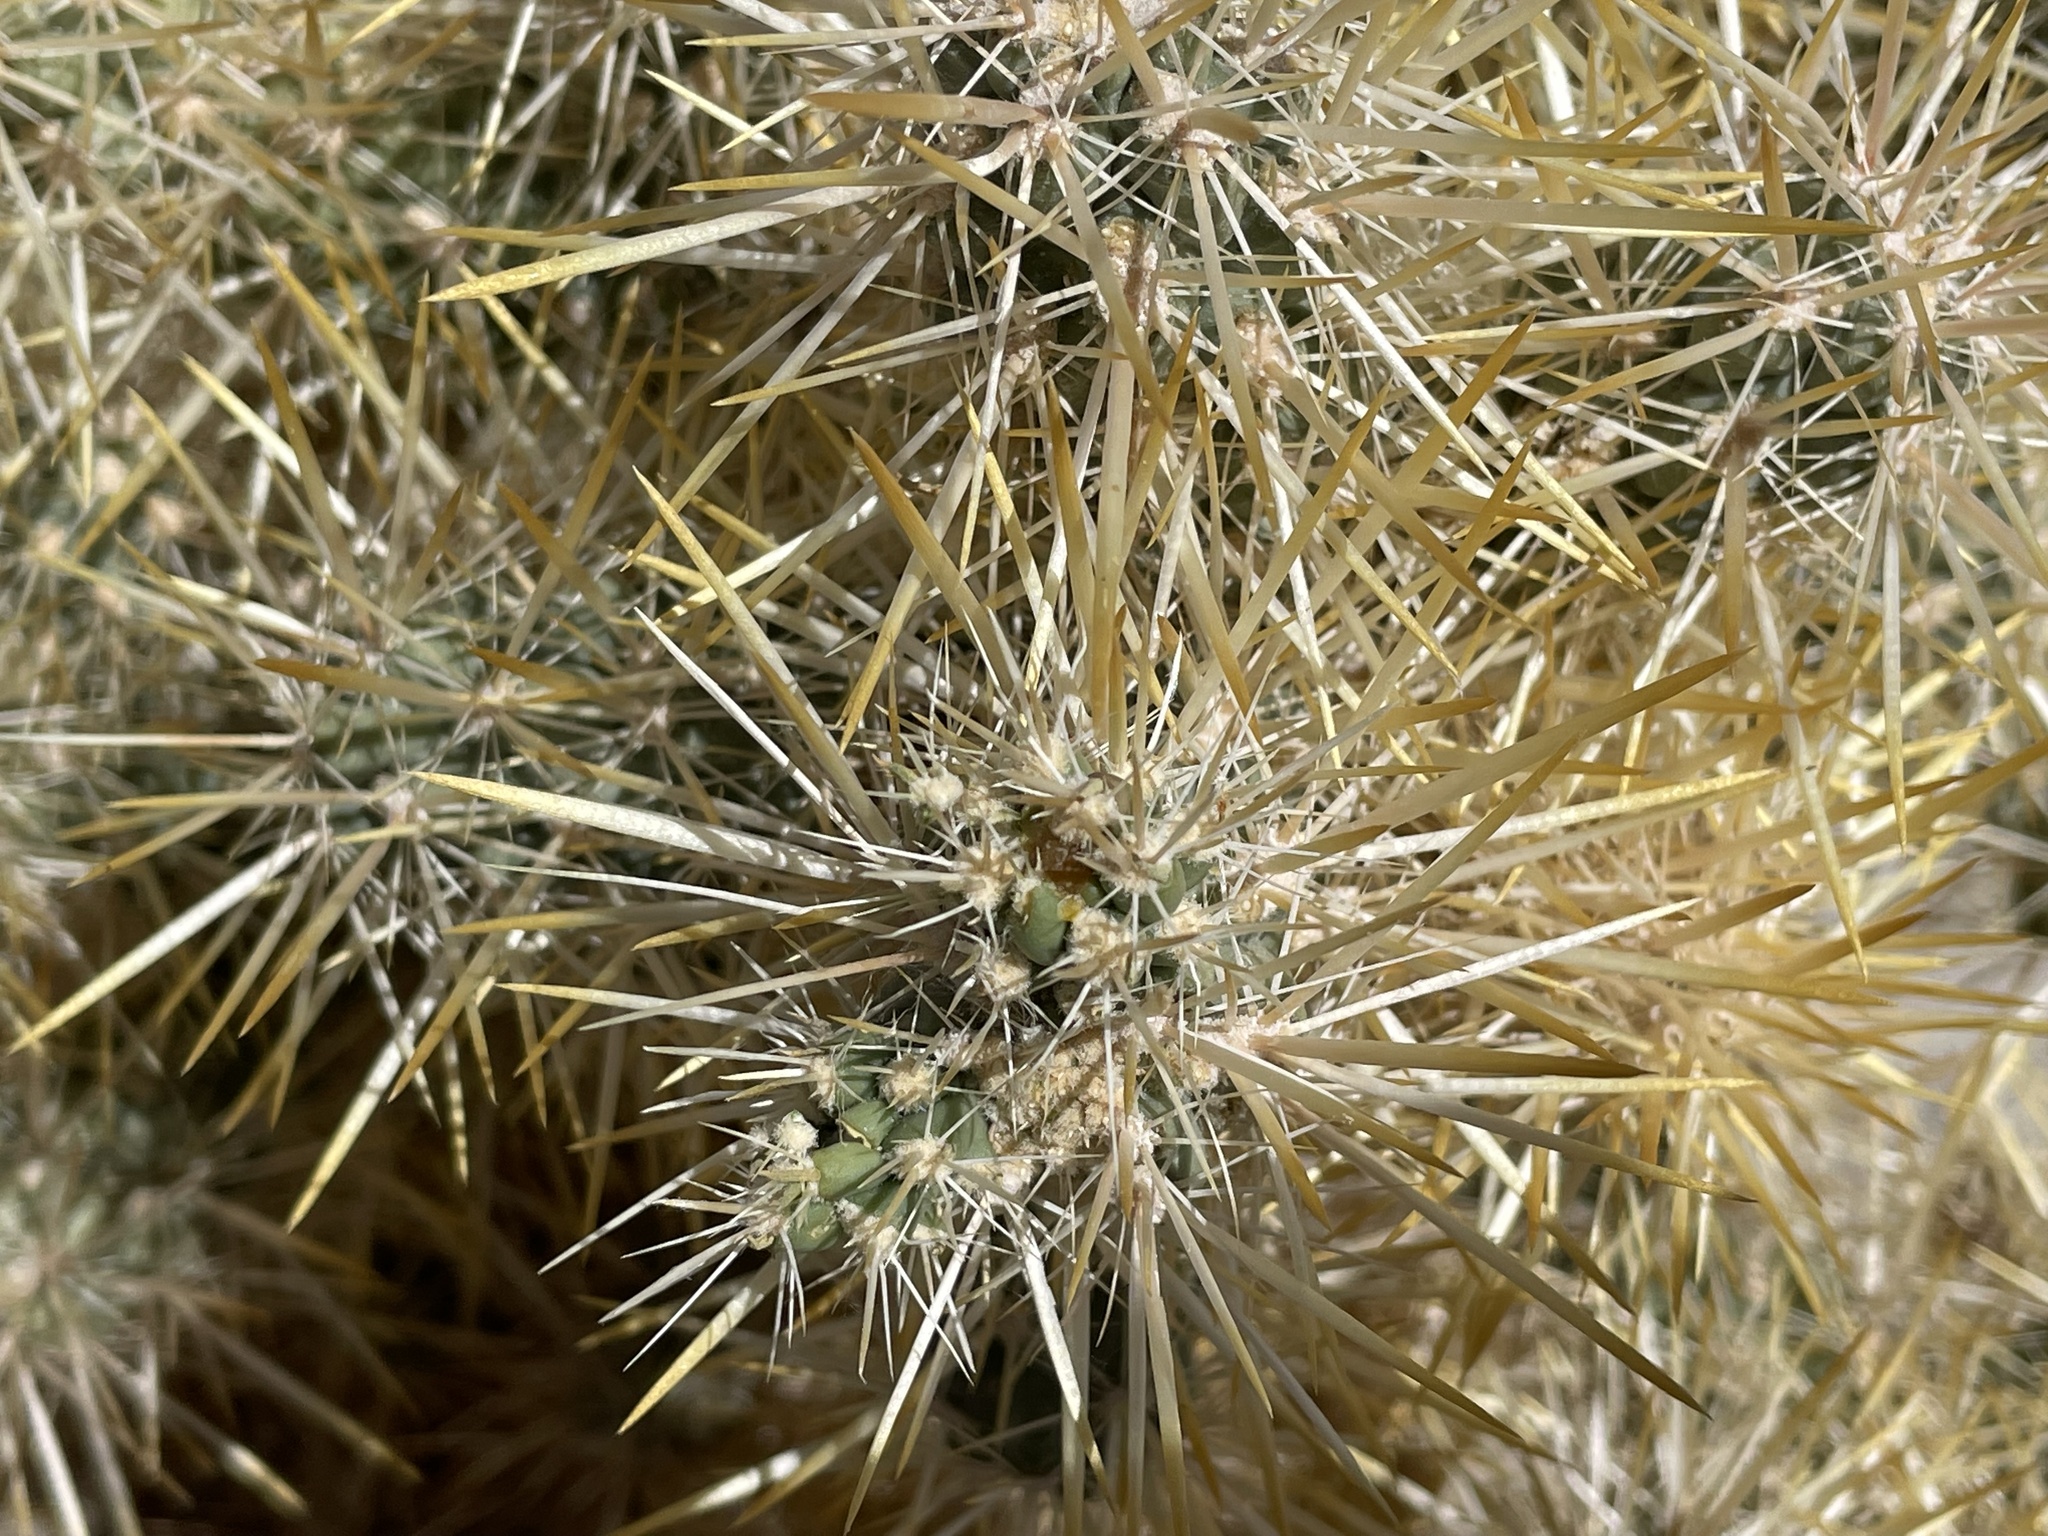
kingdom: Plantae
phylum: Tracheophyta
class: Magnoliopsida
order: Caryophyllales
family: Cactaceae
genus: Cylindropuntia
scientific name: Cylindropuntia echinocarpa
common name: Ground cholla
